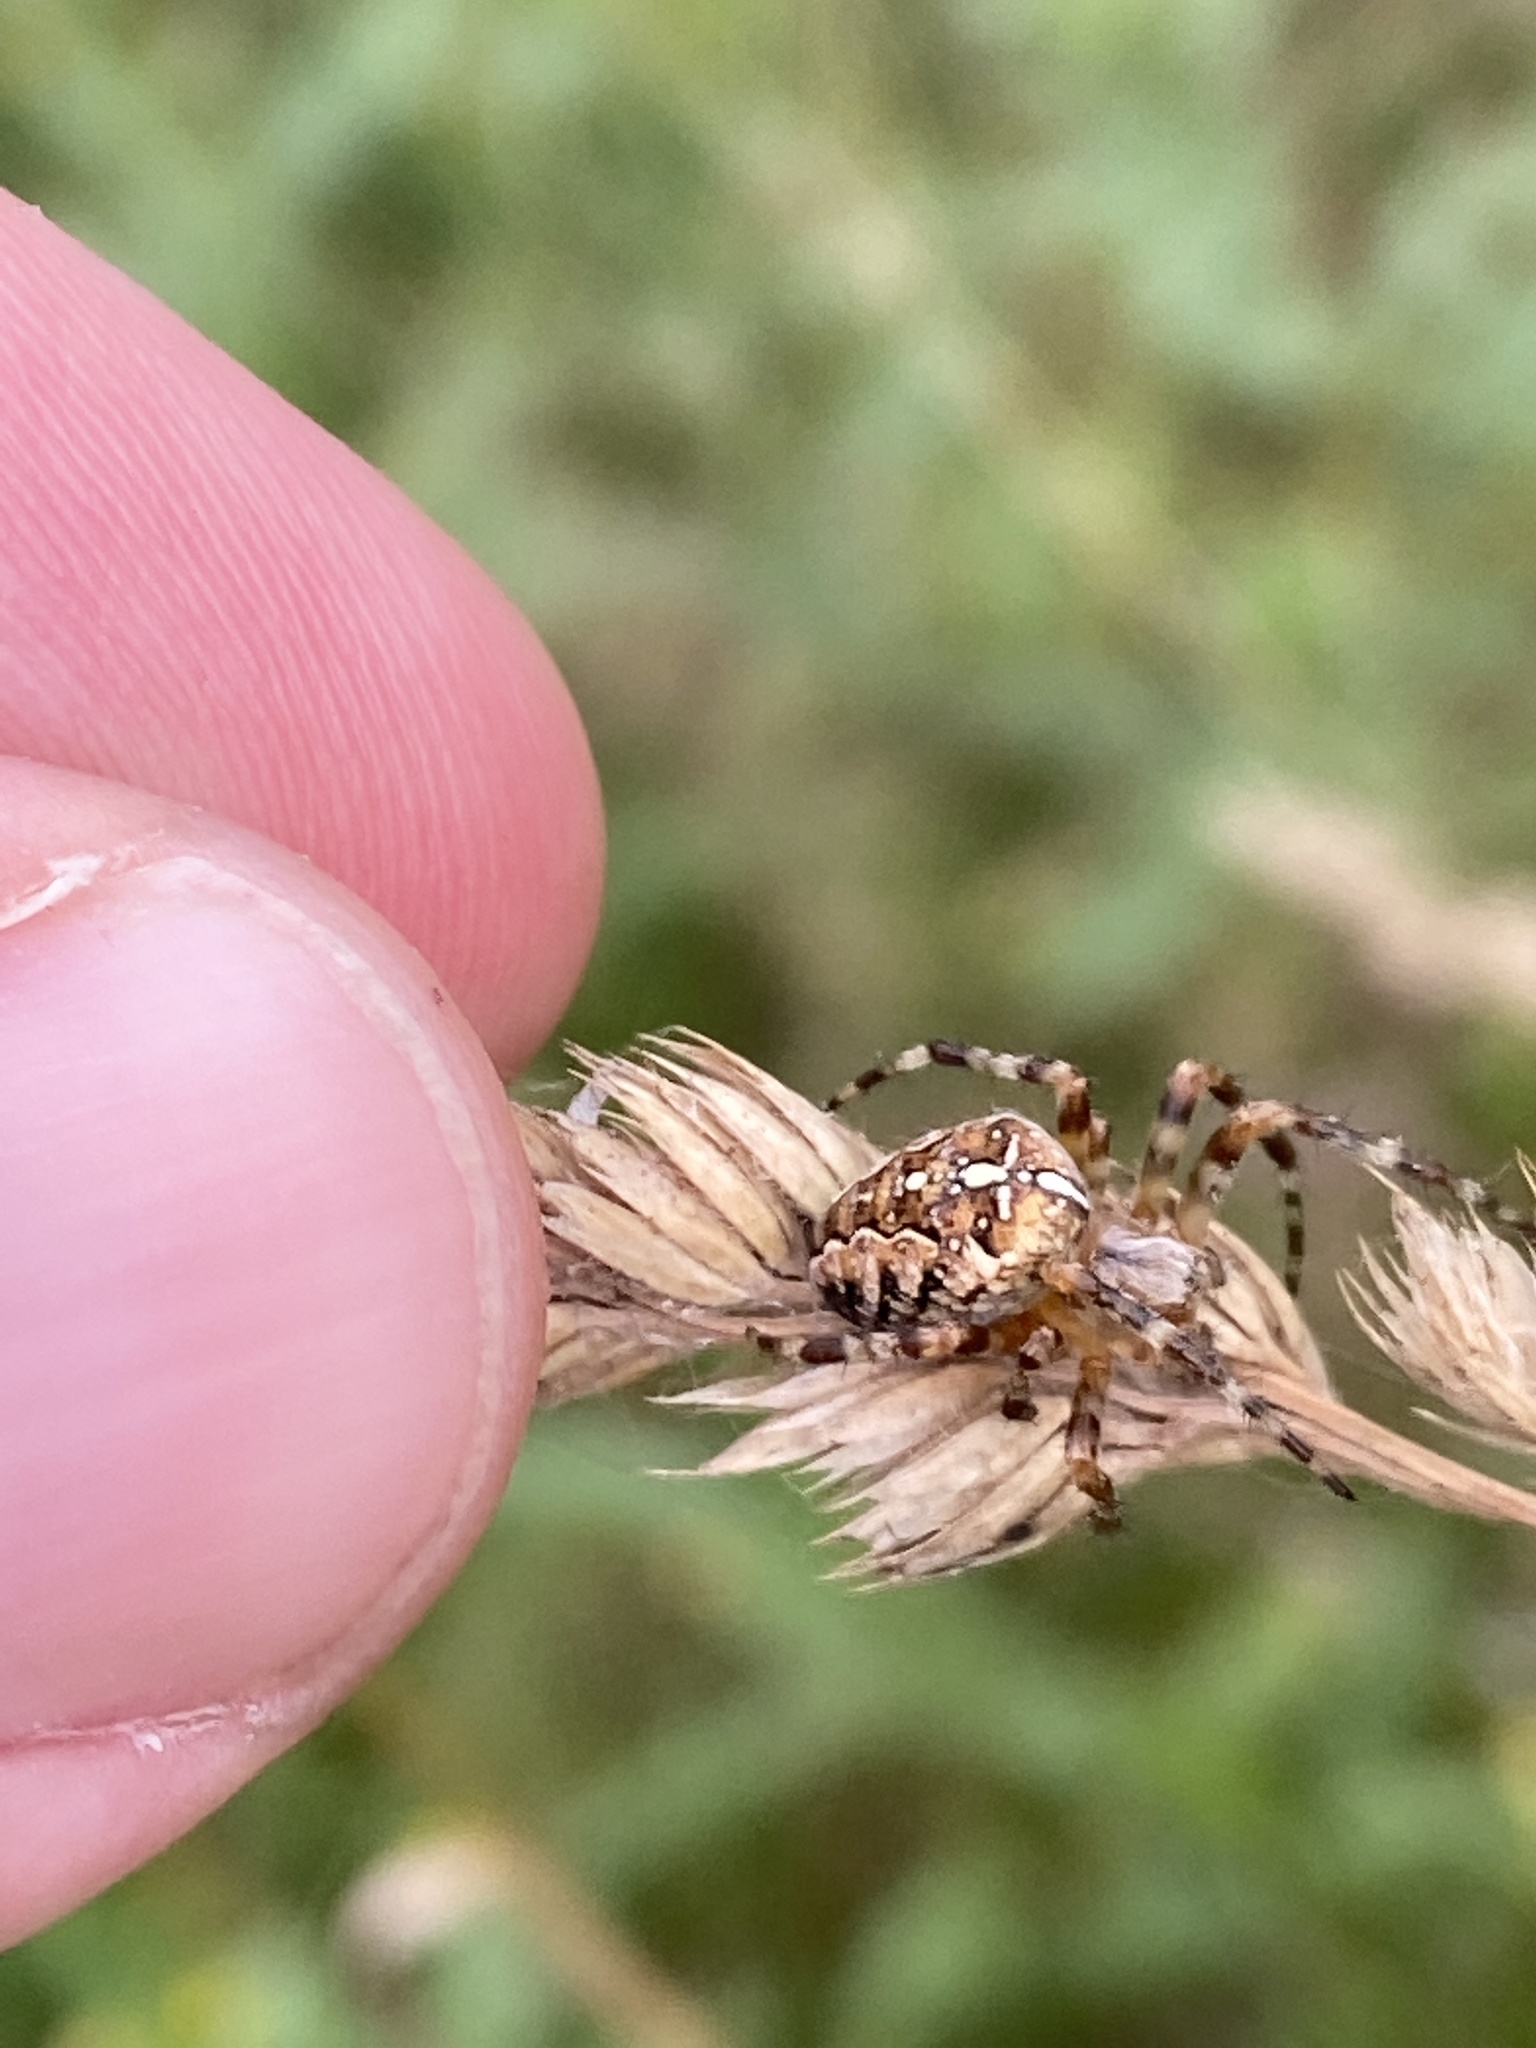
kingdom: Animalia
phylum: Arthropoda
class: Arachnida
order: Araneae
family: Araneidae
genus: Araneus
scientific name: Araneus diadematus
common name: Cross orbweaver
